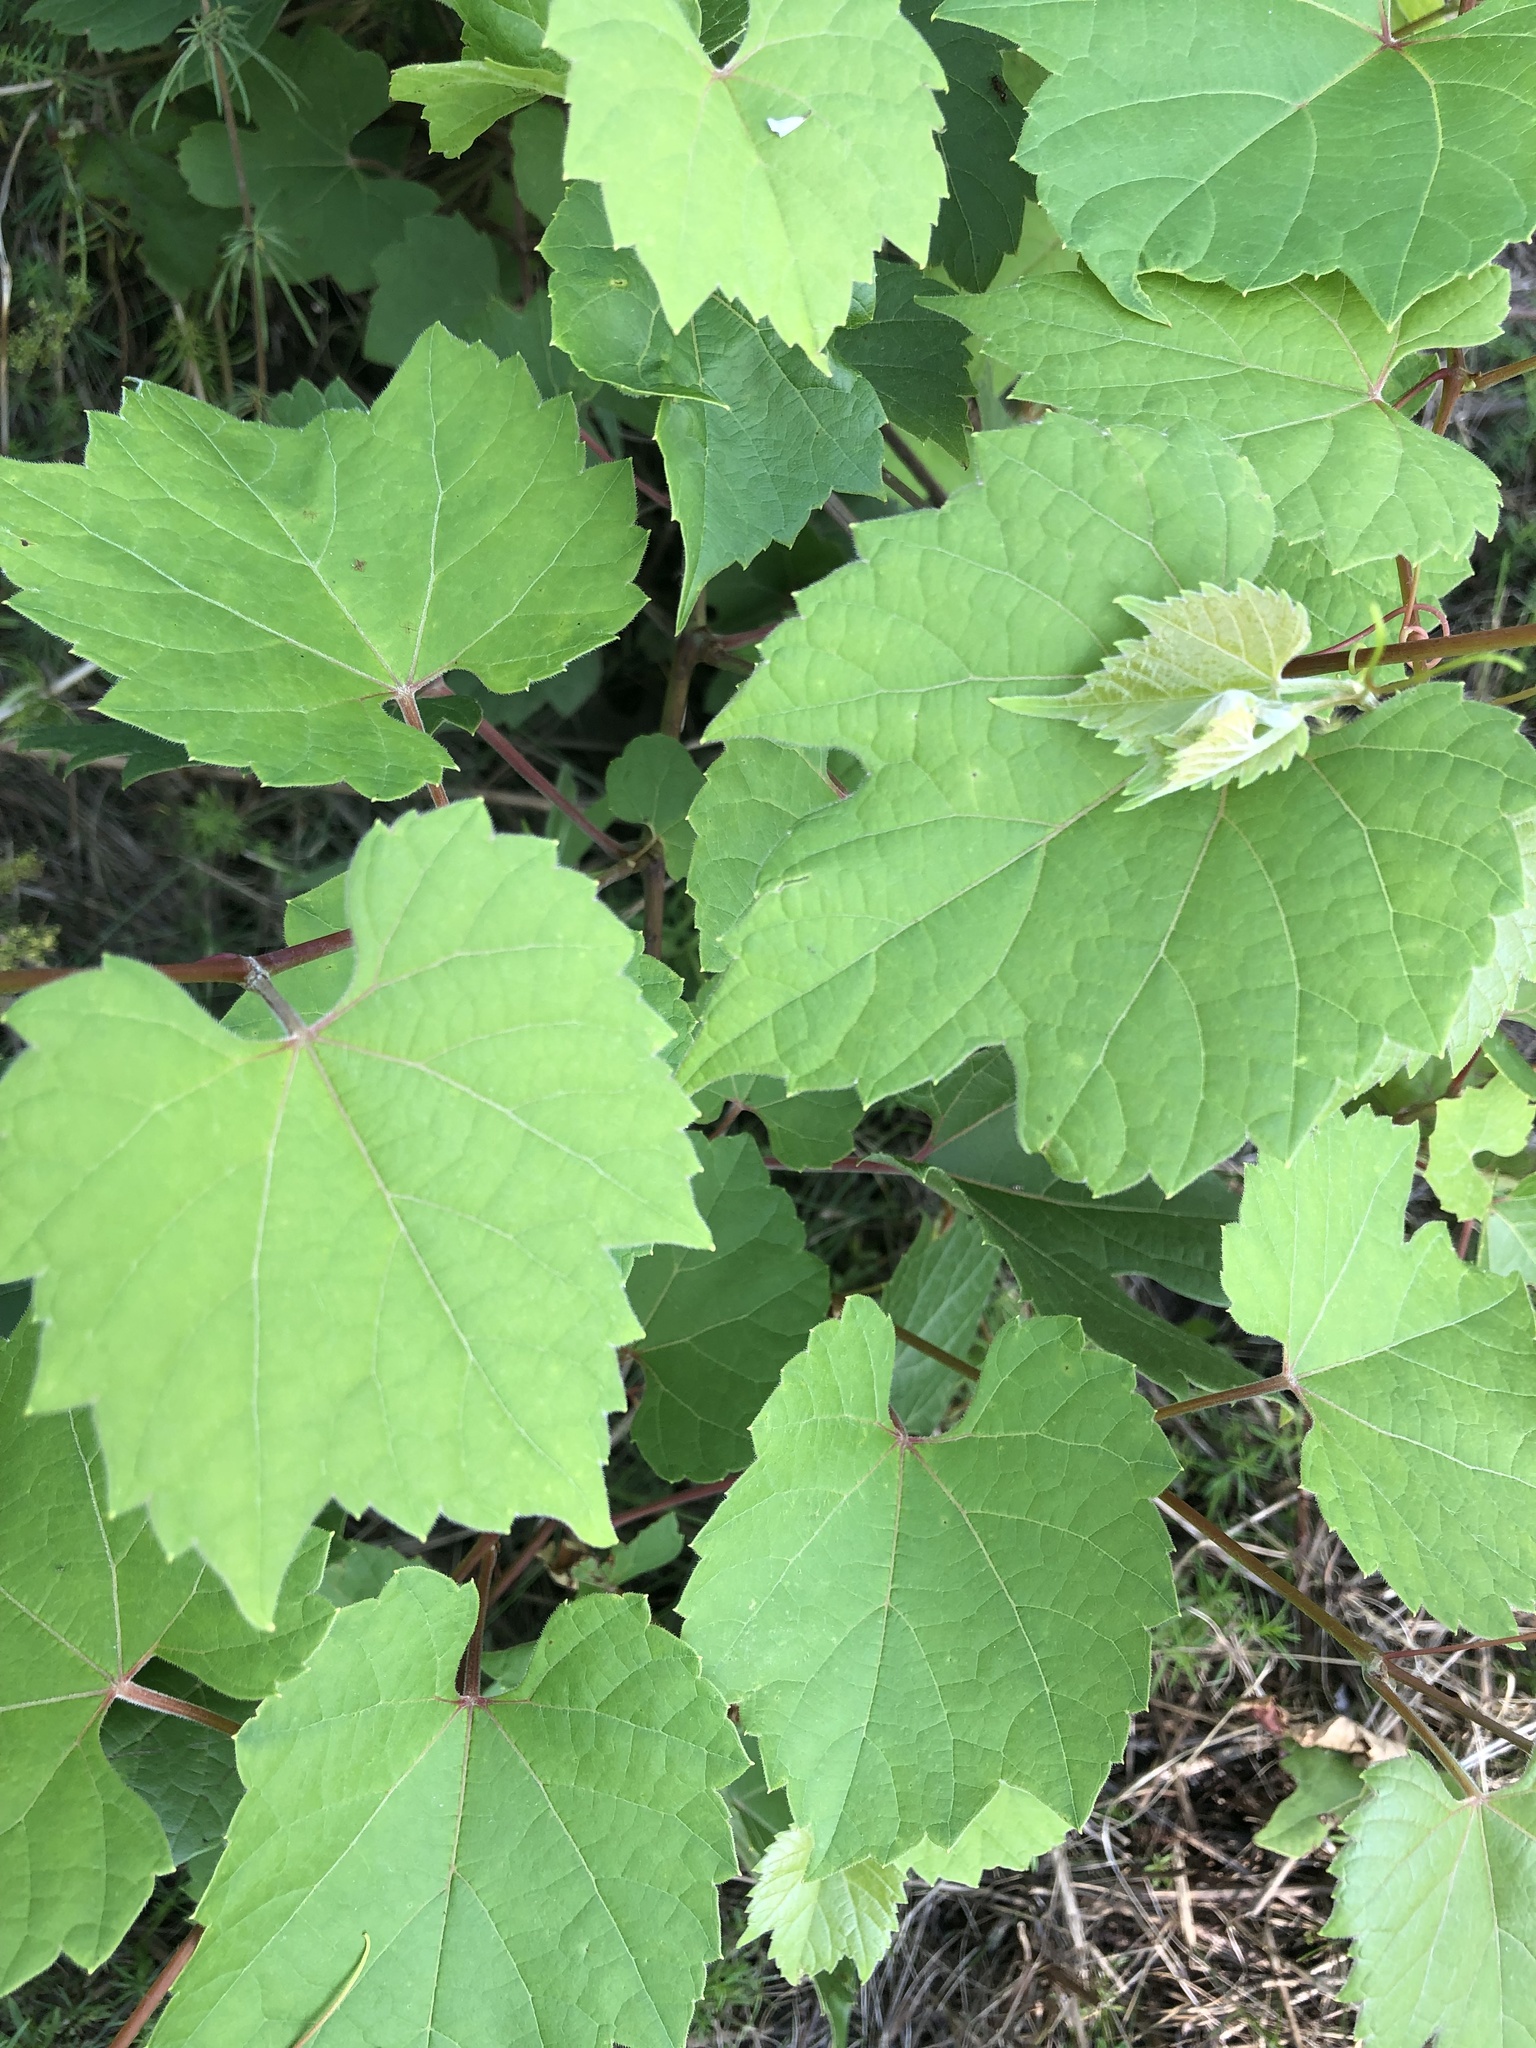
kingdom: Plantae
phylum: Tracheophyta
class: Magnoliopsida
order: Vitales
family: Vitaceae
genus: Vitis
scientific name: Vitis riparia
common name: Frost grape
